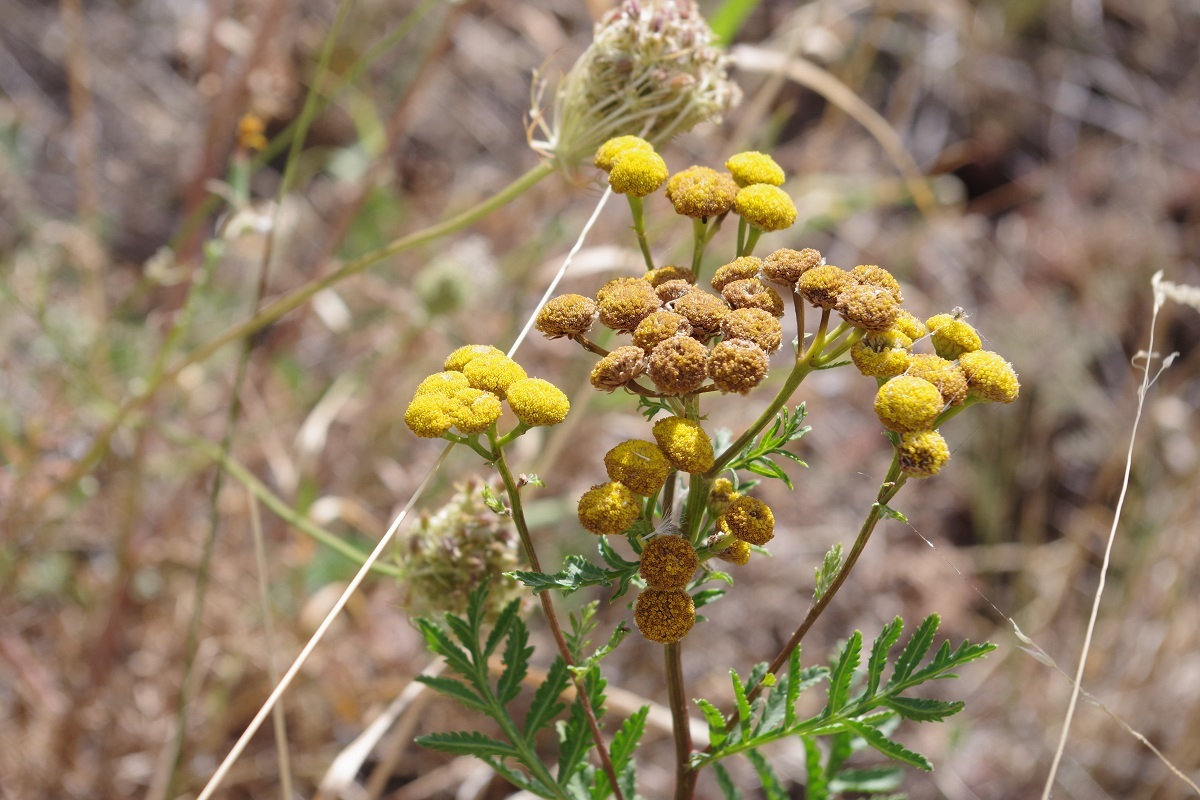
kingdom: Plantae
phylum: Tracheophyta
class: Magnoliopsida
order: Asterales
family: Asteraceae
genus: Tanacetum
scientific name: Tanacetum vulgare
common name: Common tansy
